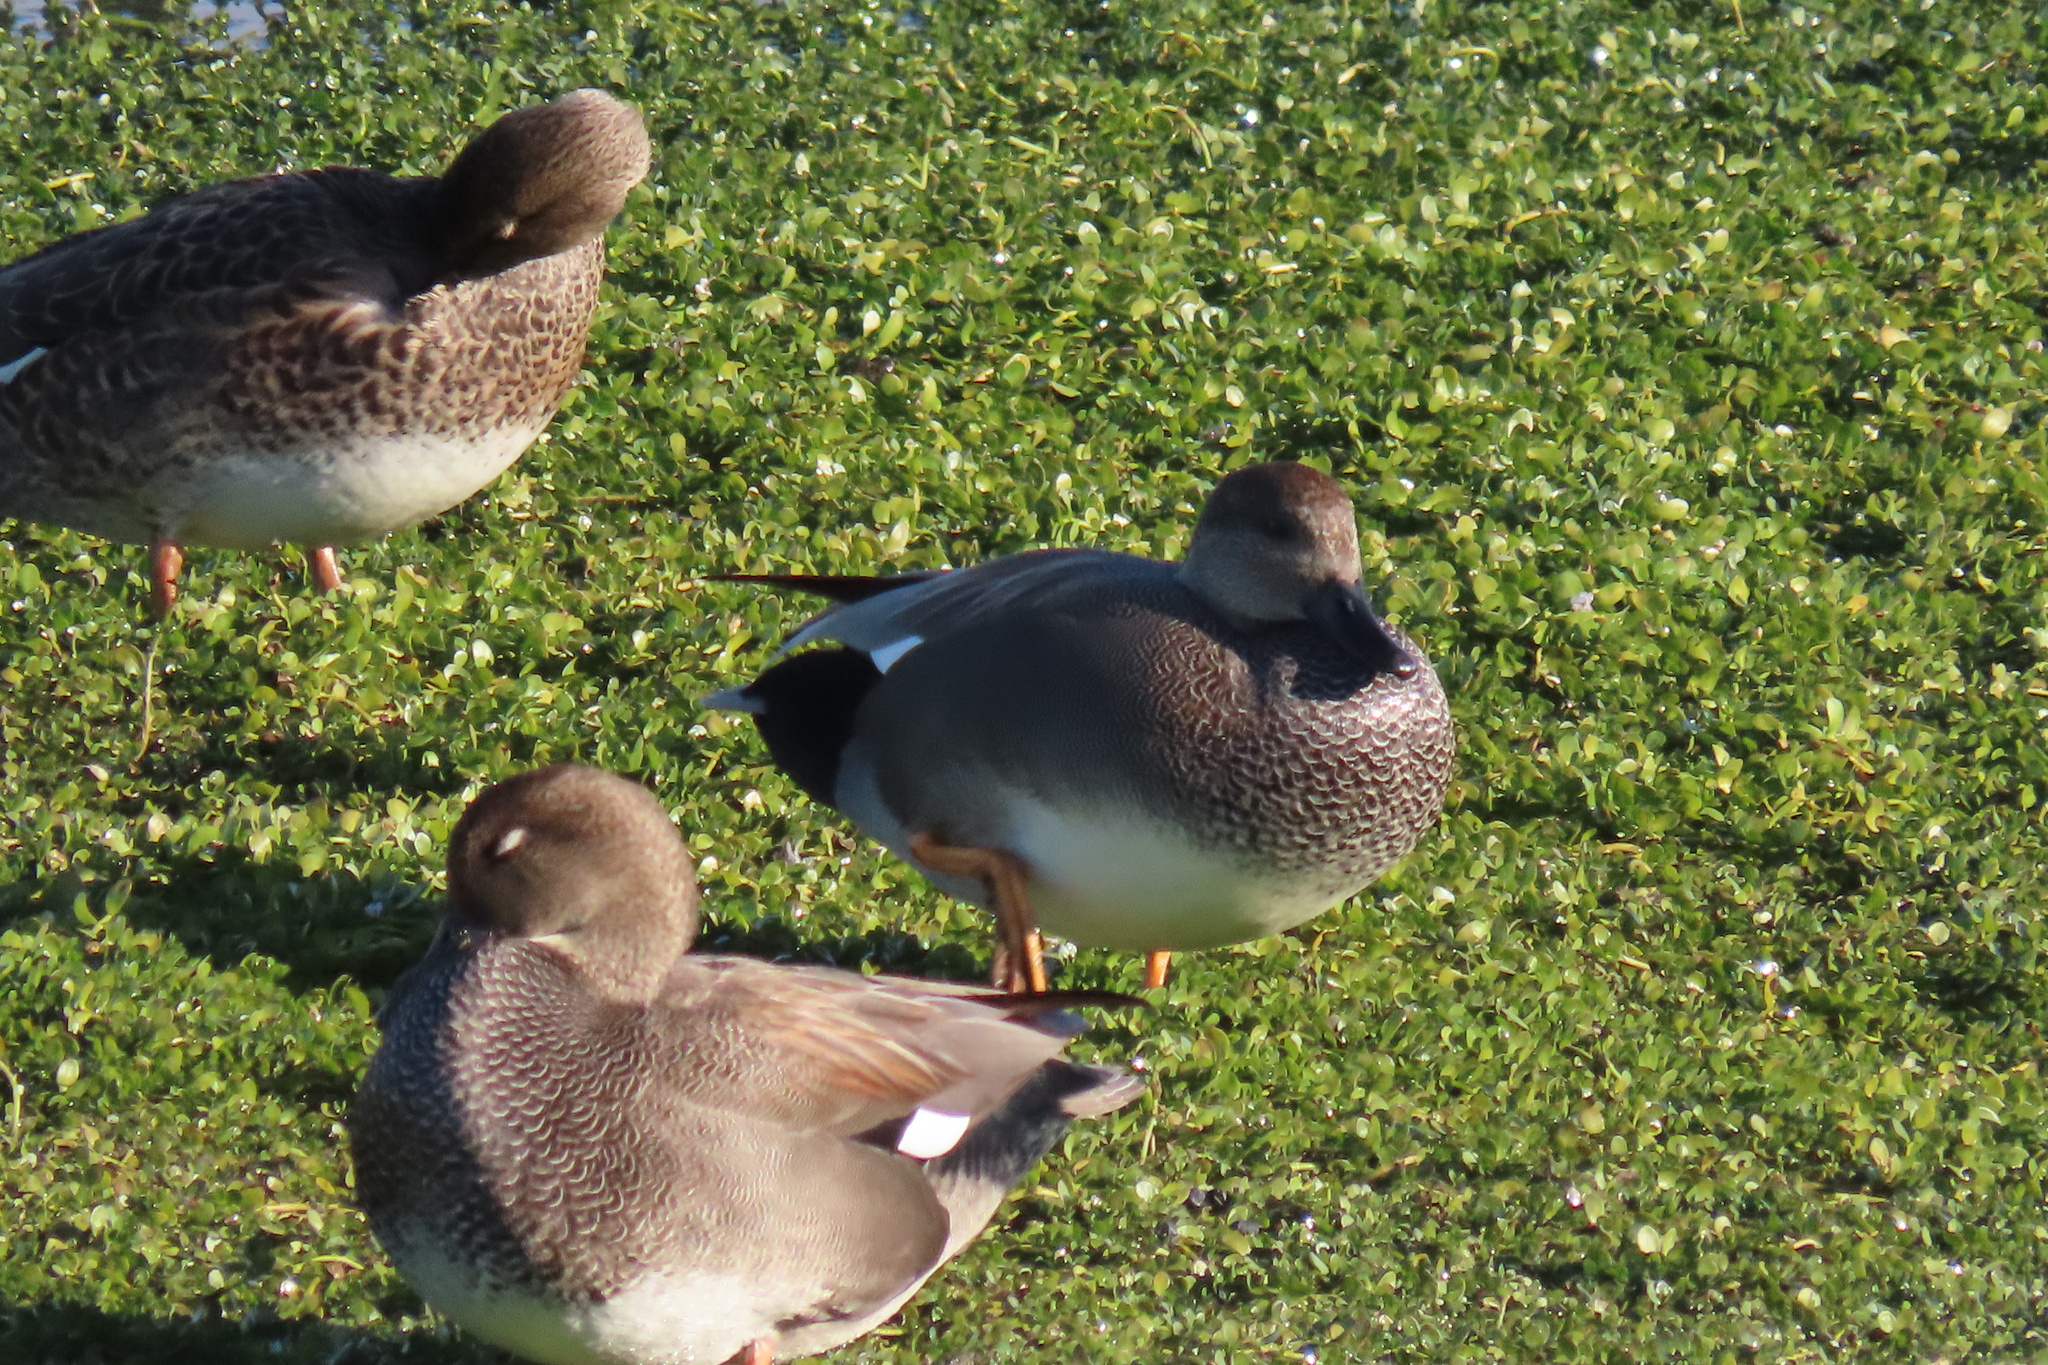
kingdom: Animalia
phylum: Chordata
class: Aves
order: Anseriformes
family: Anatidae
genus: Mareca
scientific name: Mareca strepera
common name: Gadwall
